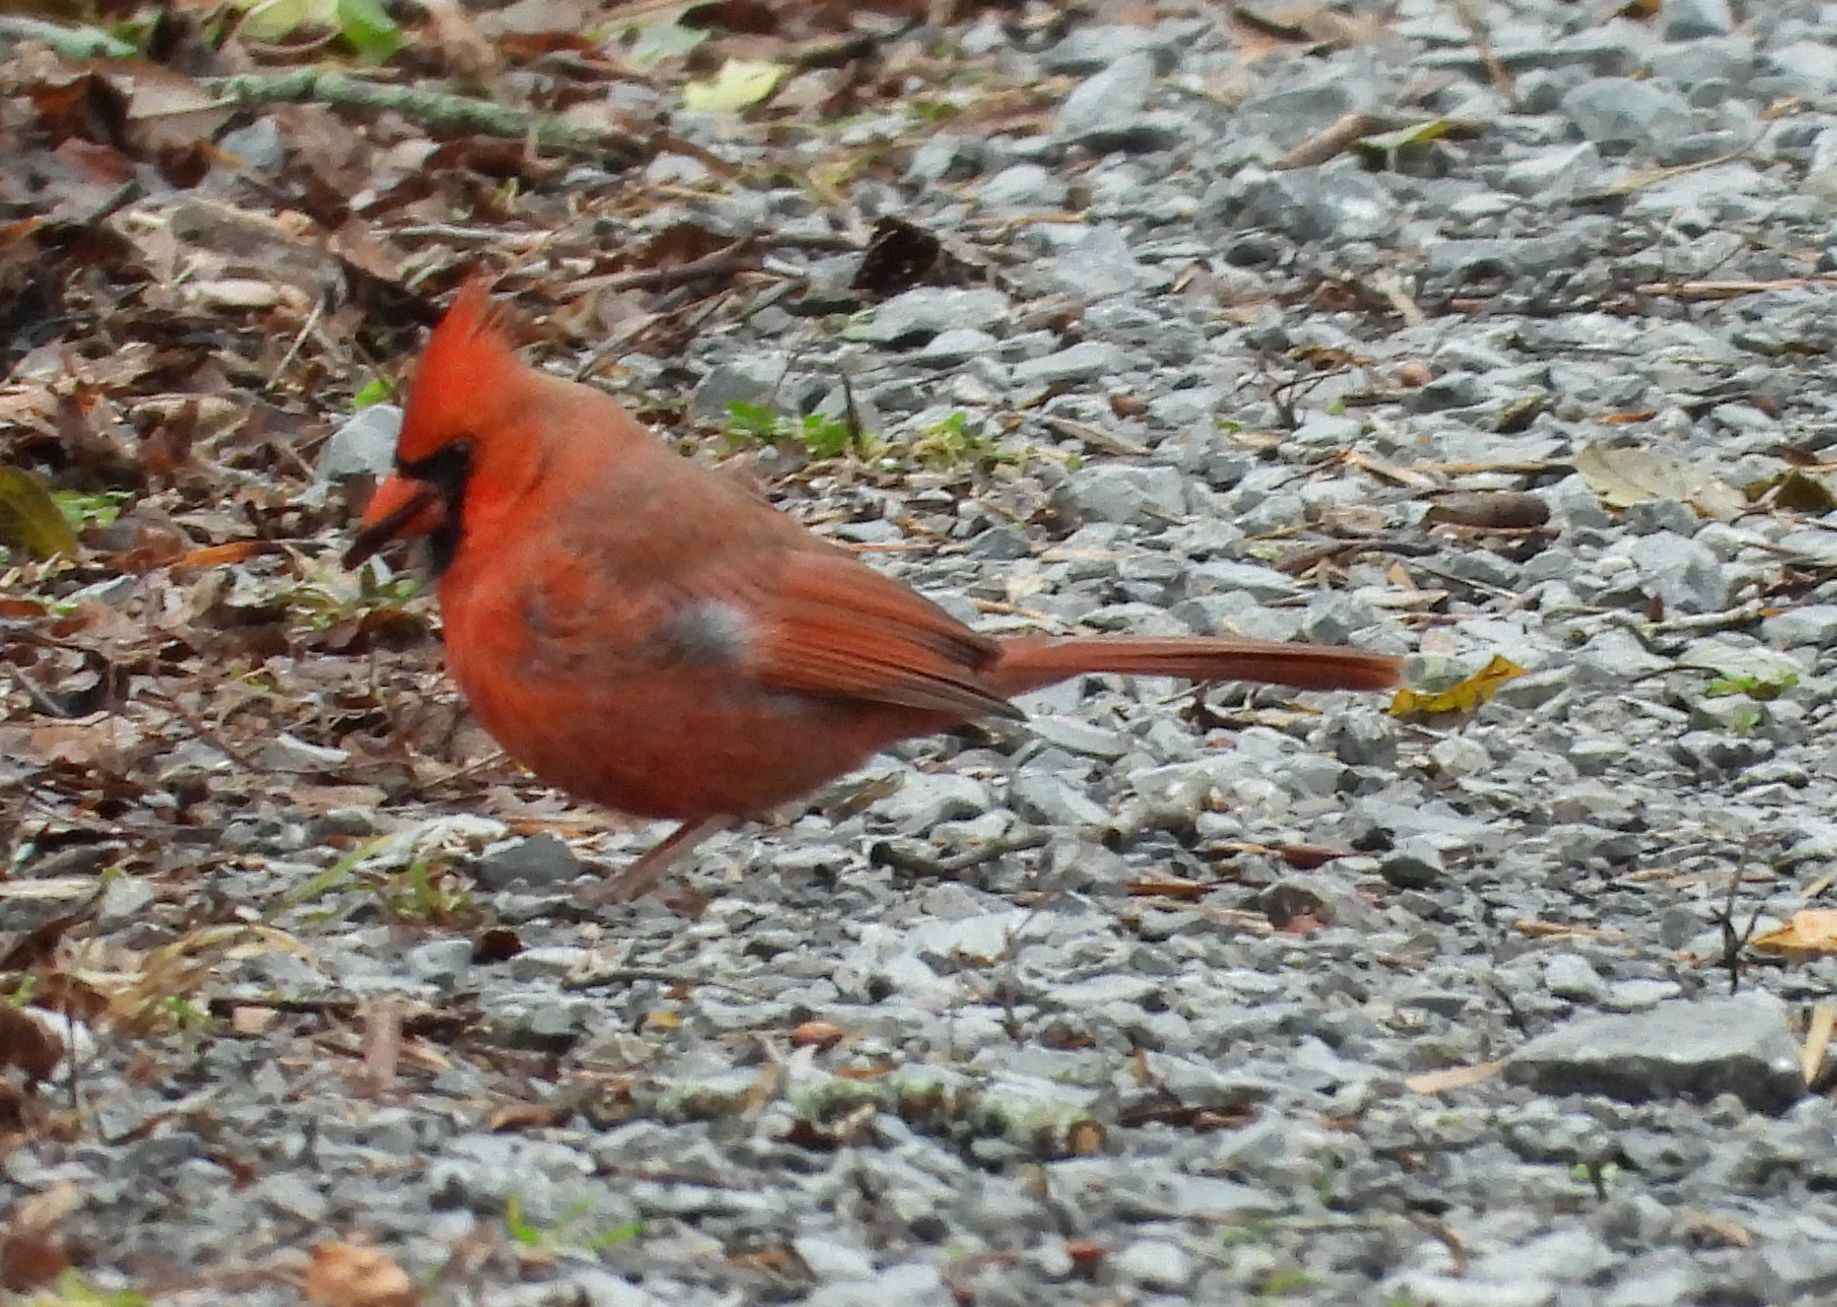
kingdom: Animalia
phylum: Chordata
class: Aves
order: Passeriformes
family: Cardinalidae
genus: Cardinalis
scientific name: Cardinalis cardinalis
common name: Northern cardinal
